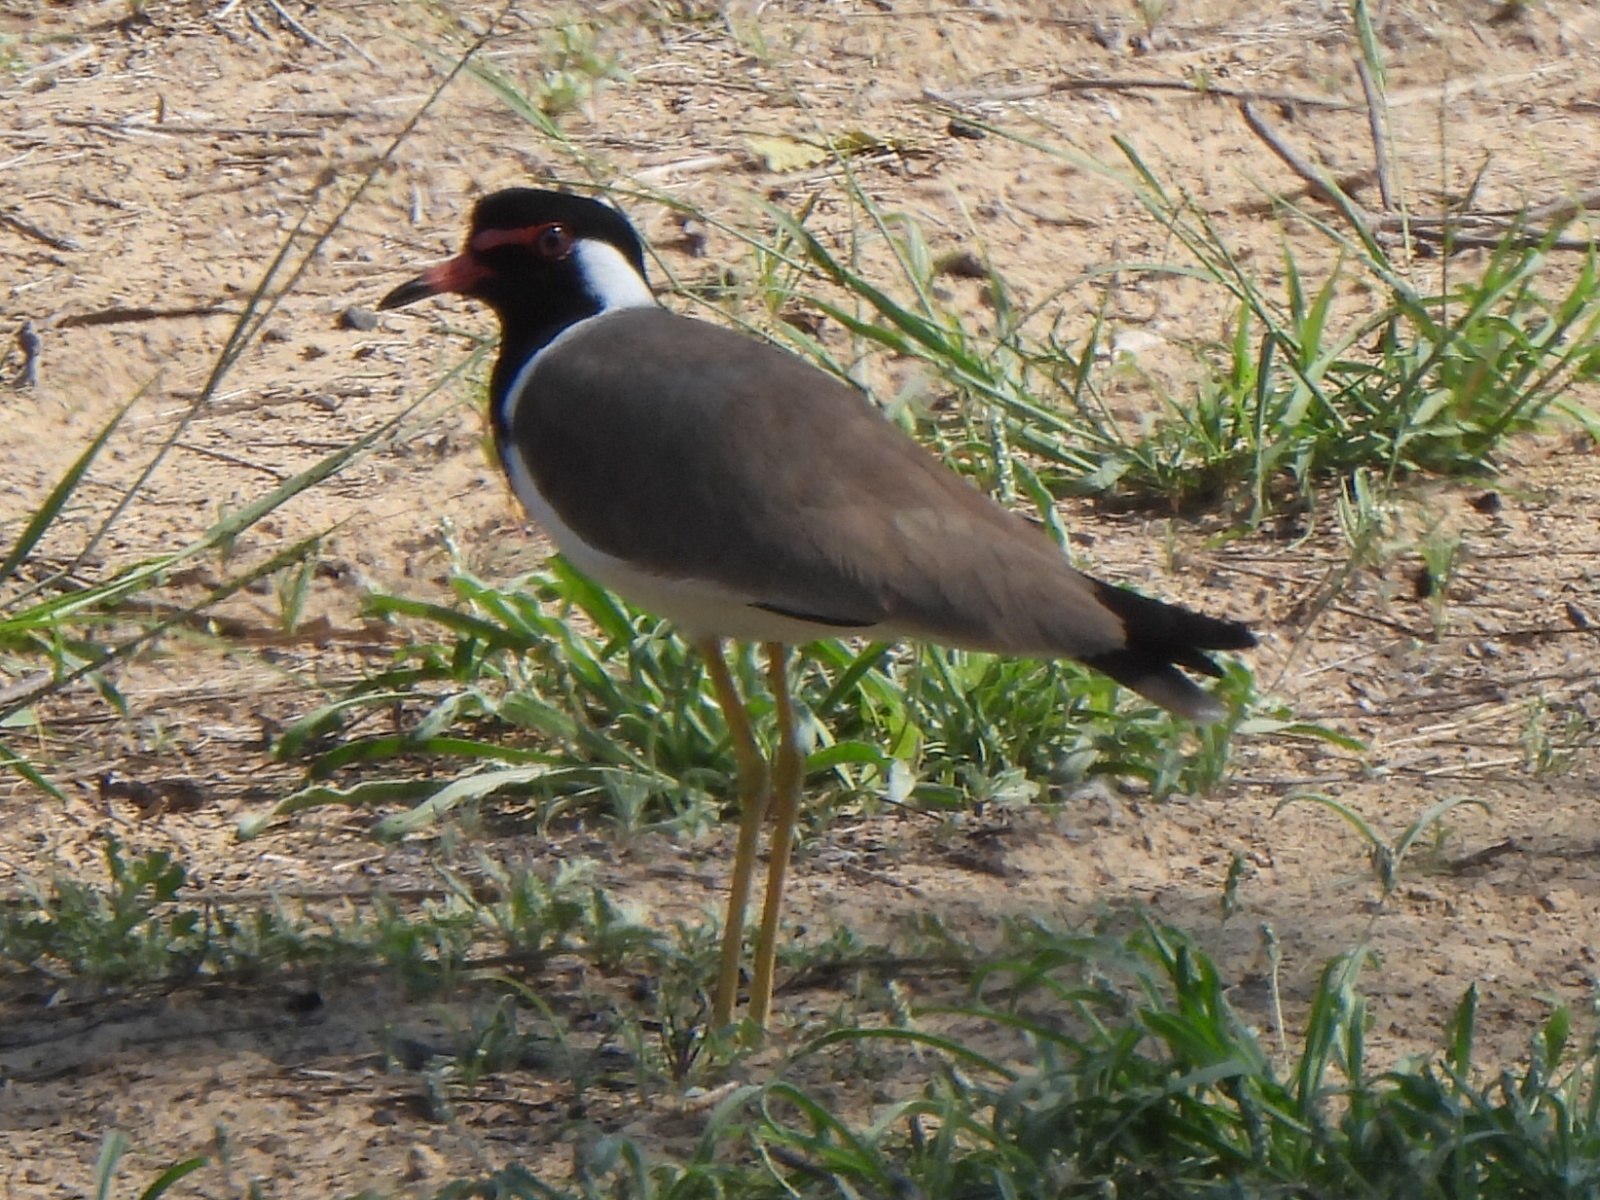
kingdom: Animalia
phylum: Chordata
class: Aves
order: Charadriiformes
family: Charadriidae
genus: Vanellus
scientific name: Vanellus indicus
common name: Red-wattled lapwing
